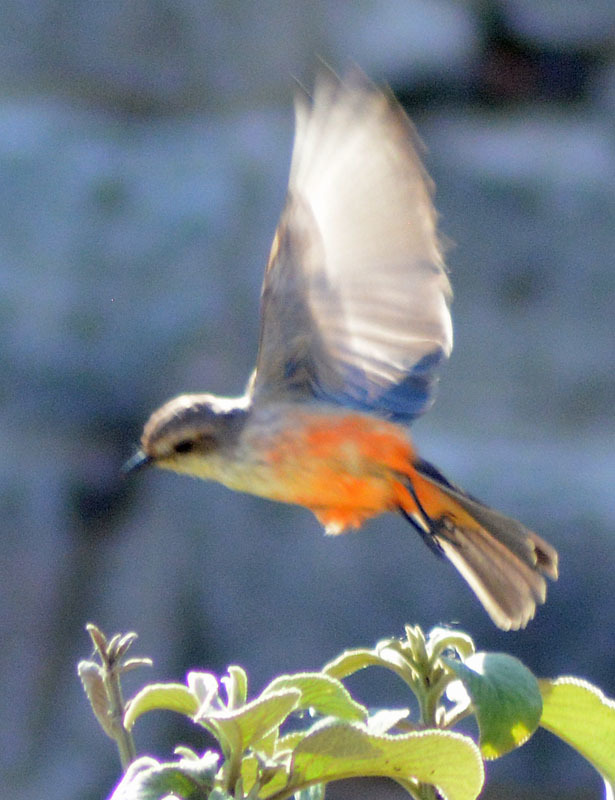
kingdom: Animalia
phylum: Chordata
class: Aves
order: Passeriformes
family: Tyrannidae
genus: Pyrocephalus
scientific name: Pyrocephalus rubinus
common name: Vermilion flycatcher
